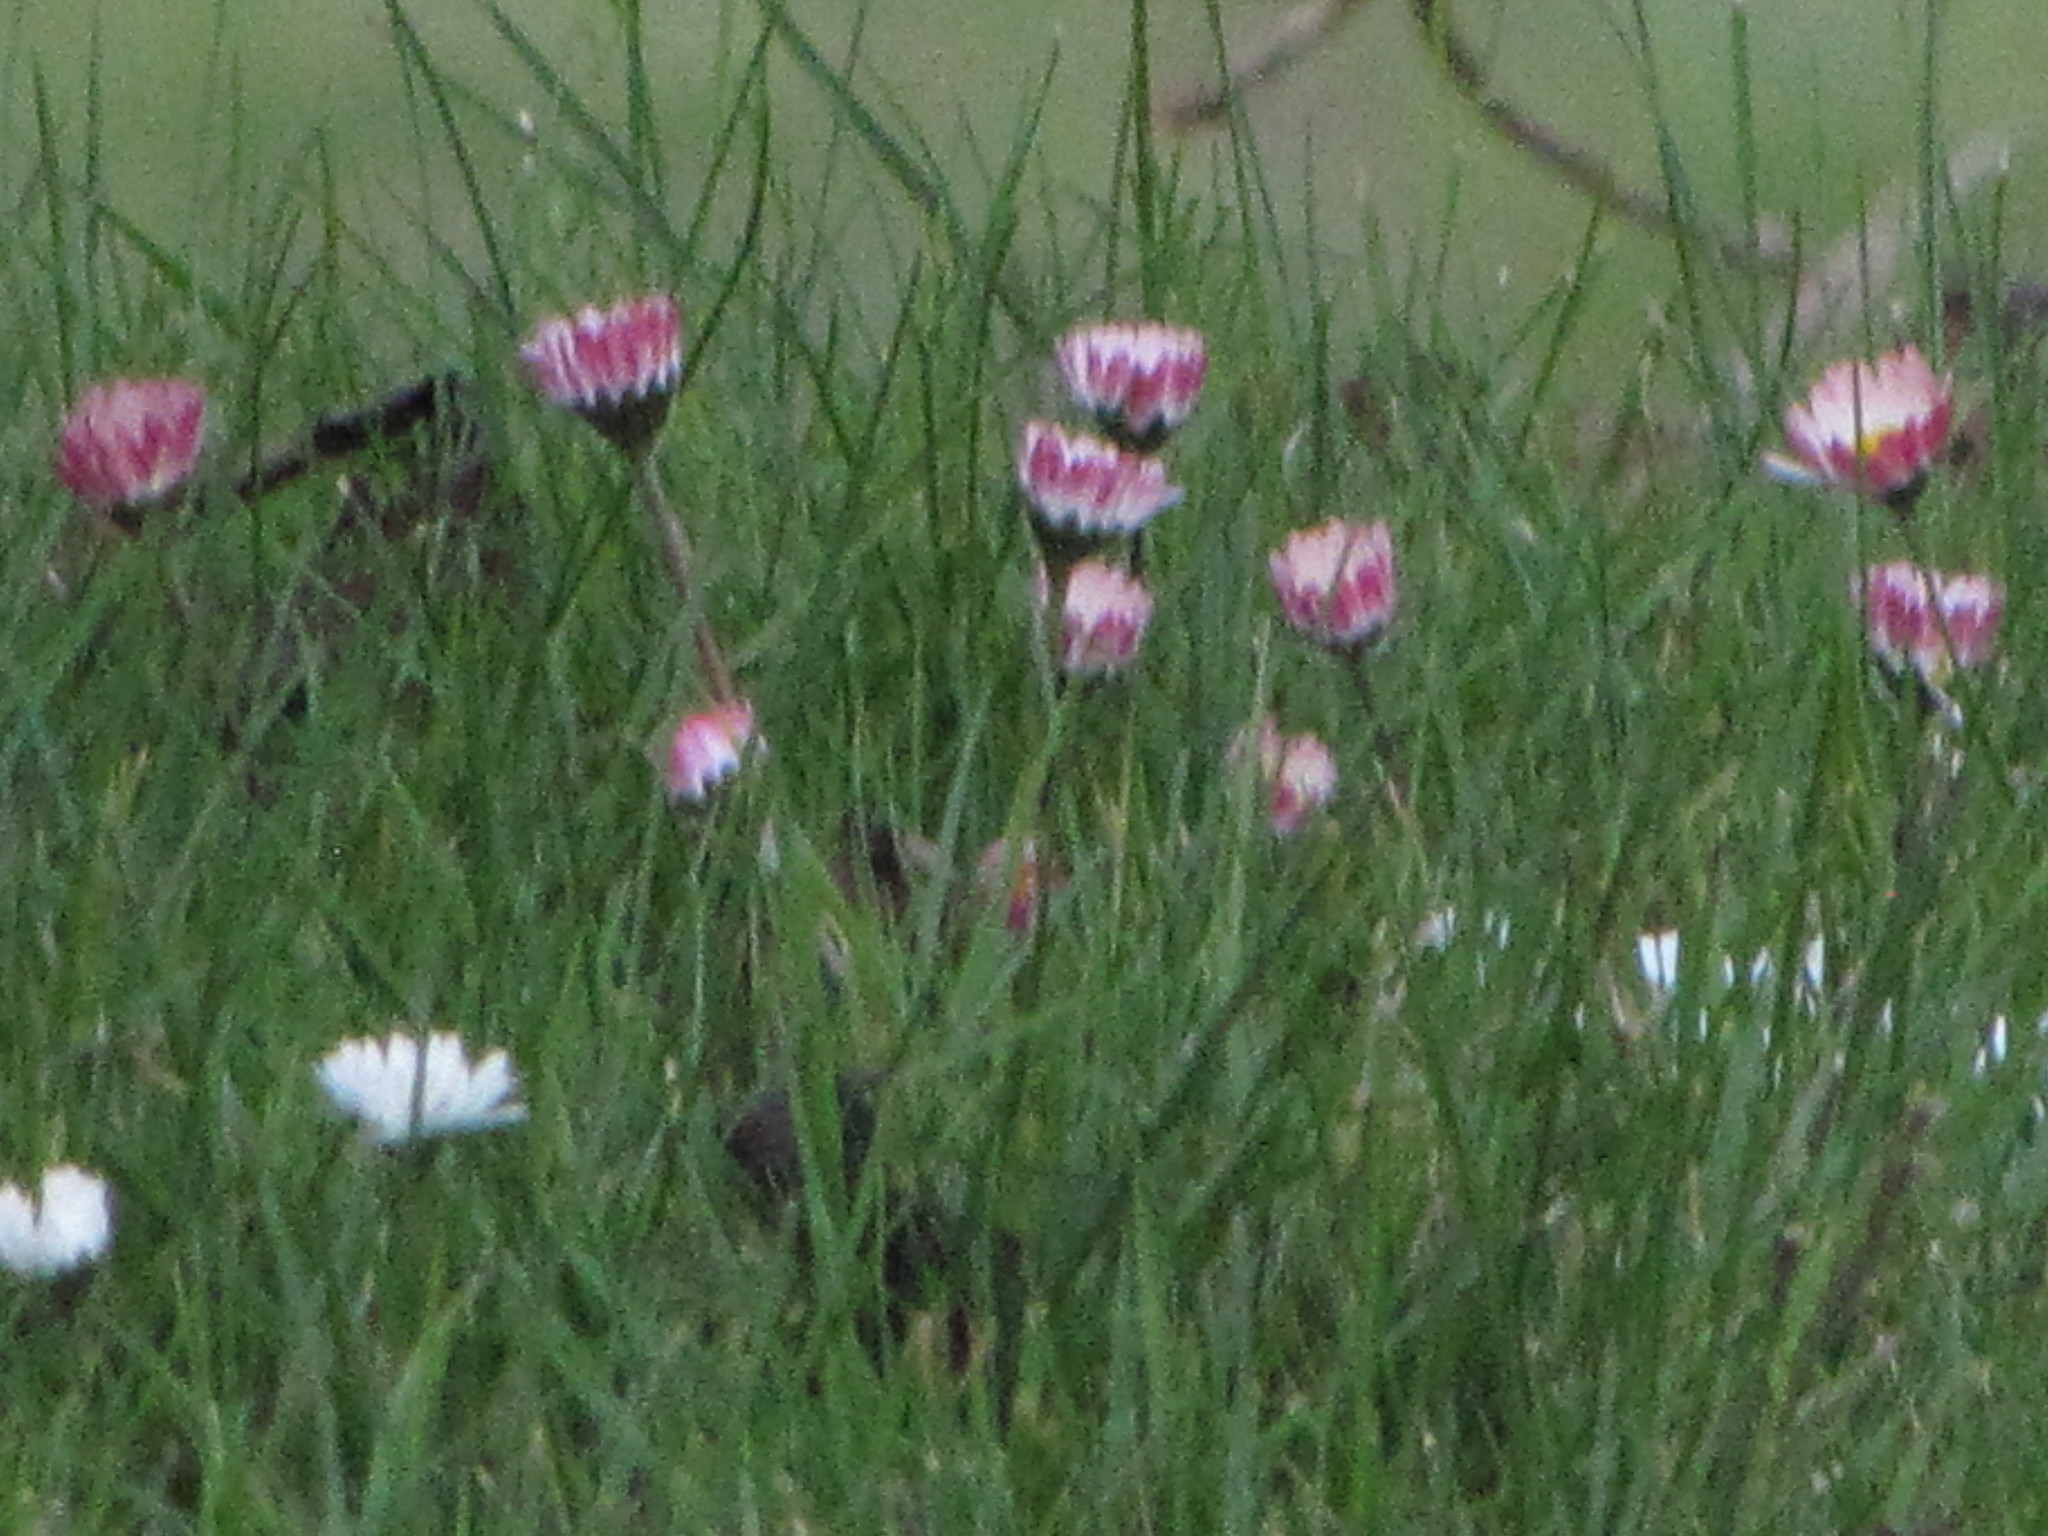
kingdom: Plantae
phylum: Tracheophyta
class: Magnoliopsida
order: Asterales
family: Asteraceae
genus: Bellis
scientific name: Bellis perennis
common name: Lawndaisy
